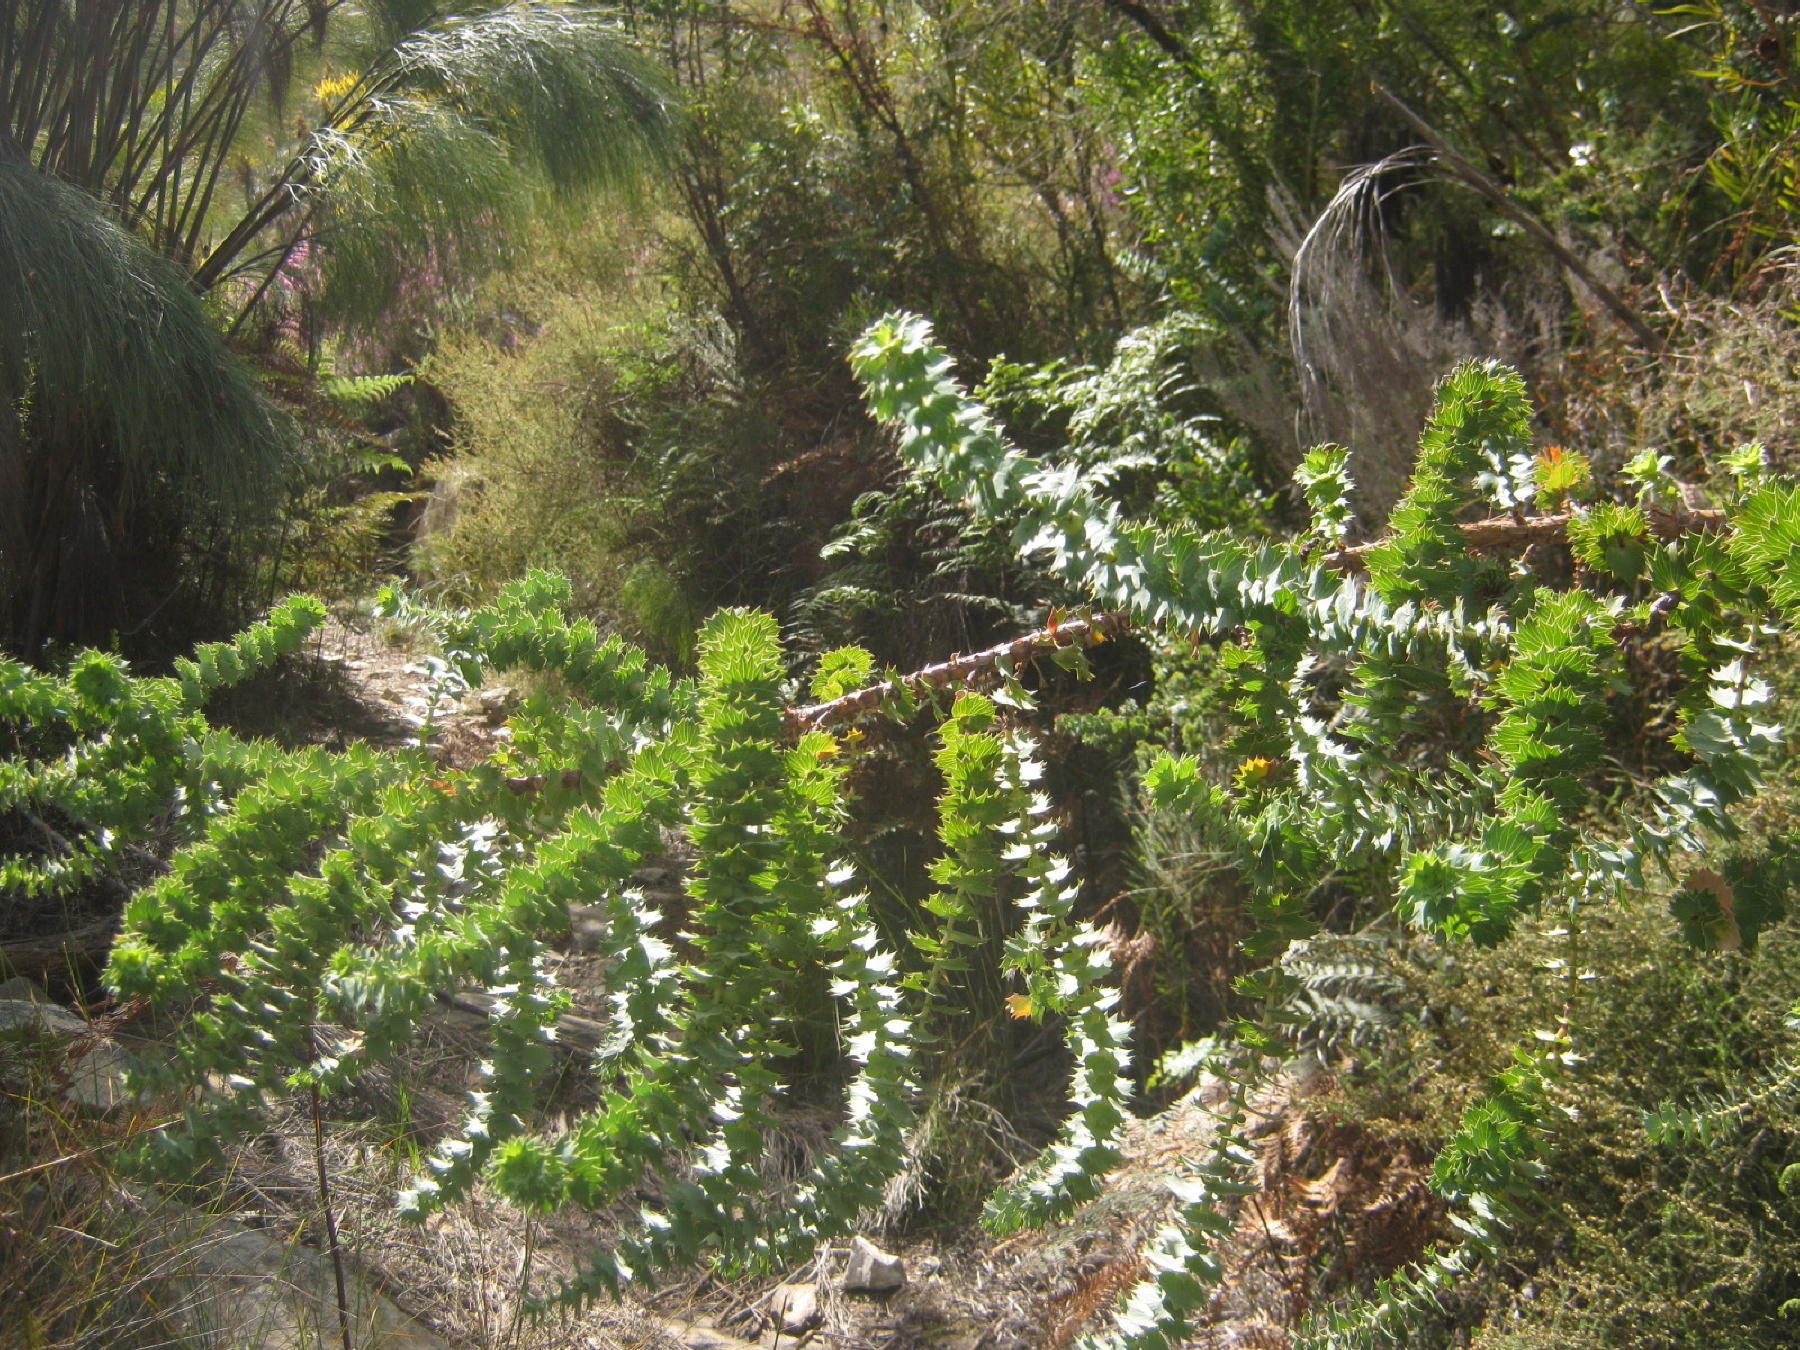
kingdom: Plantae
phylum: Tracheophyta
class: Magnoliopsida
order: Rosales
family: Rosaceae
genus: Cliffortia
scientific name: Cliffortia reniformis
